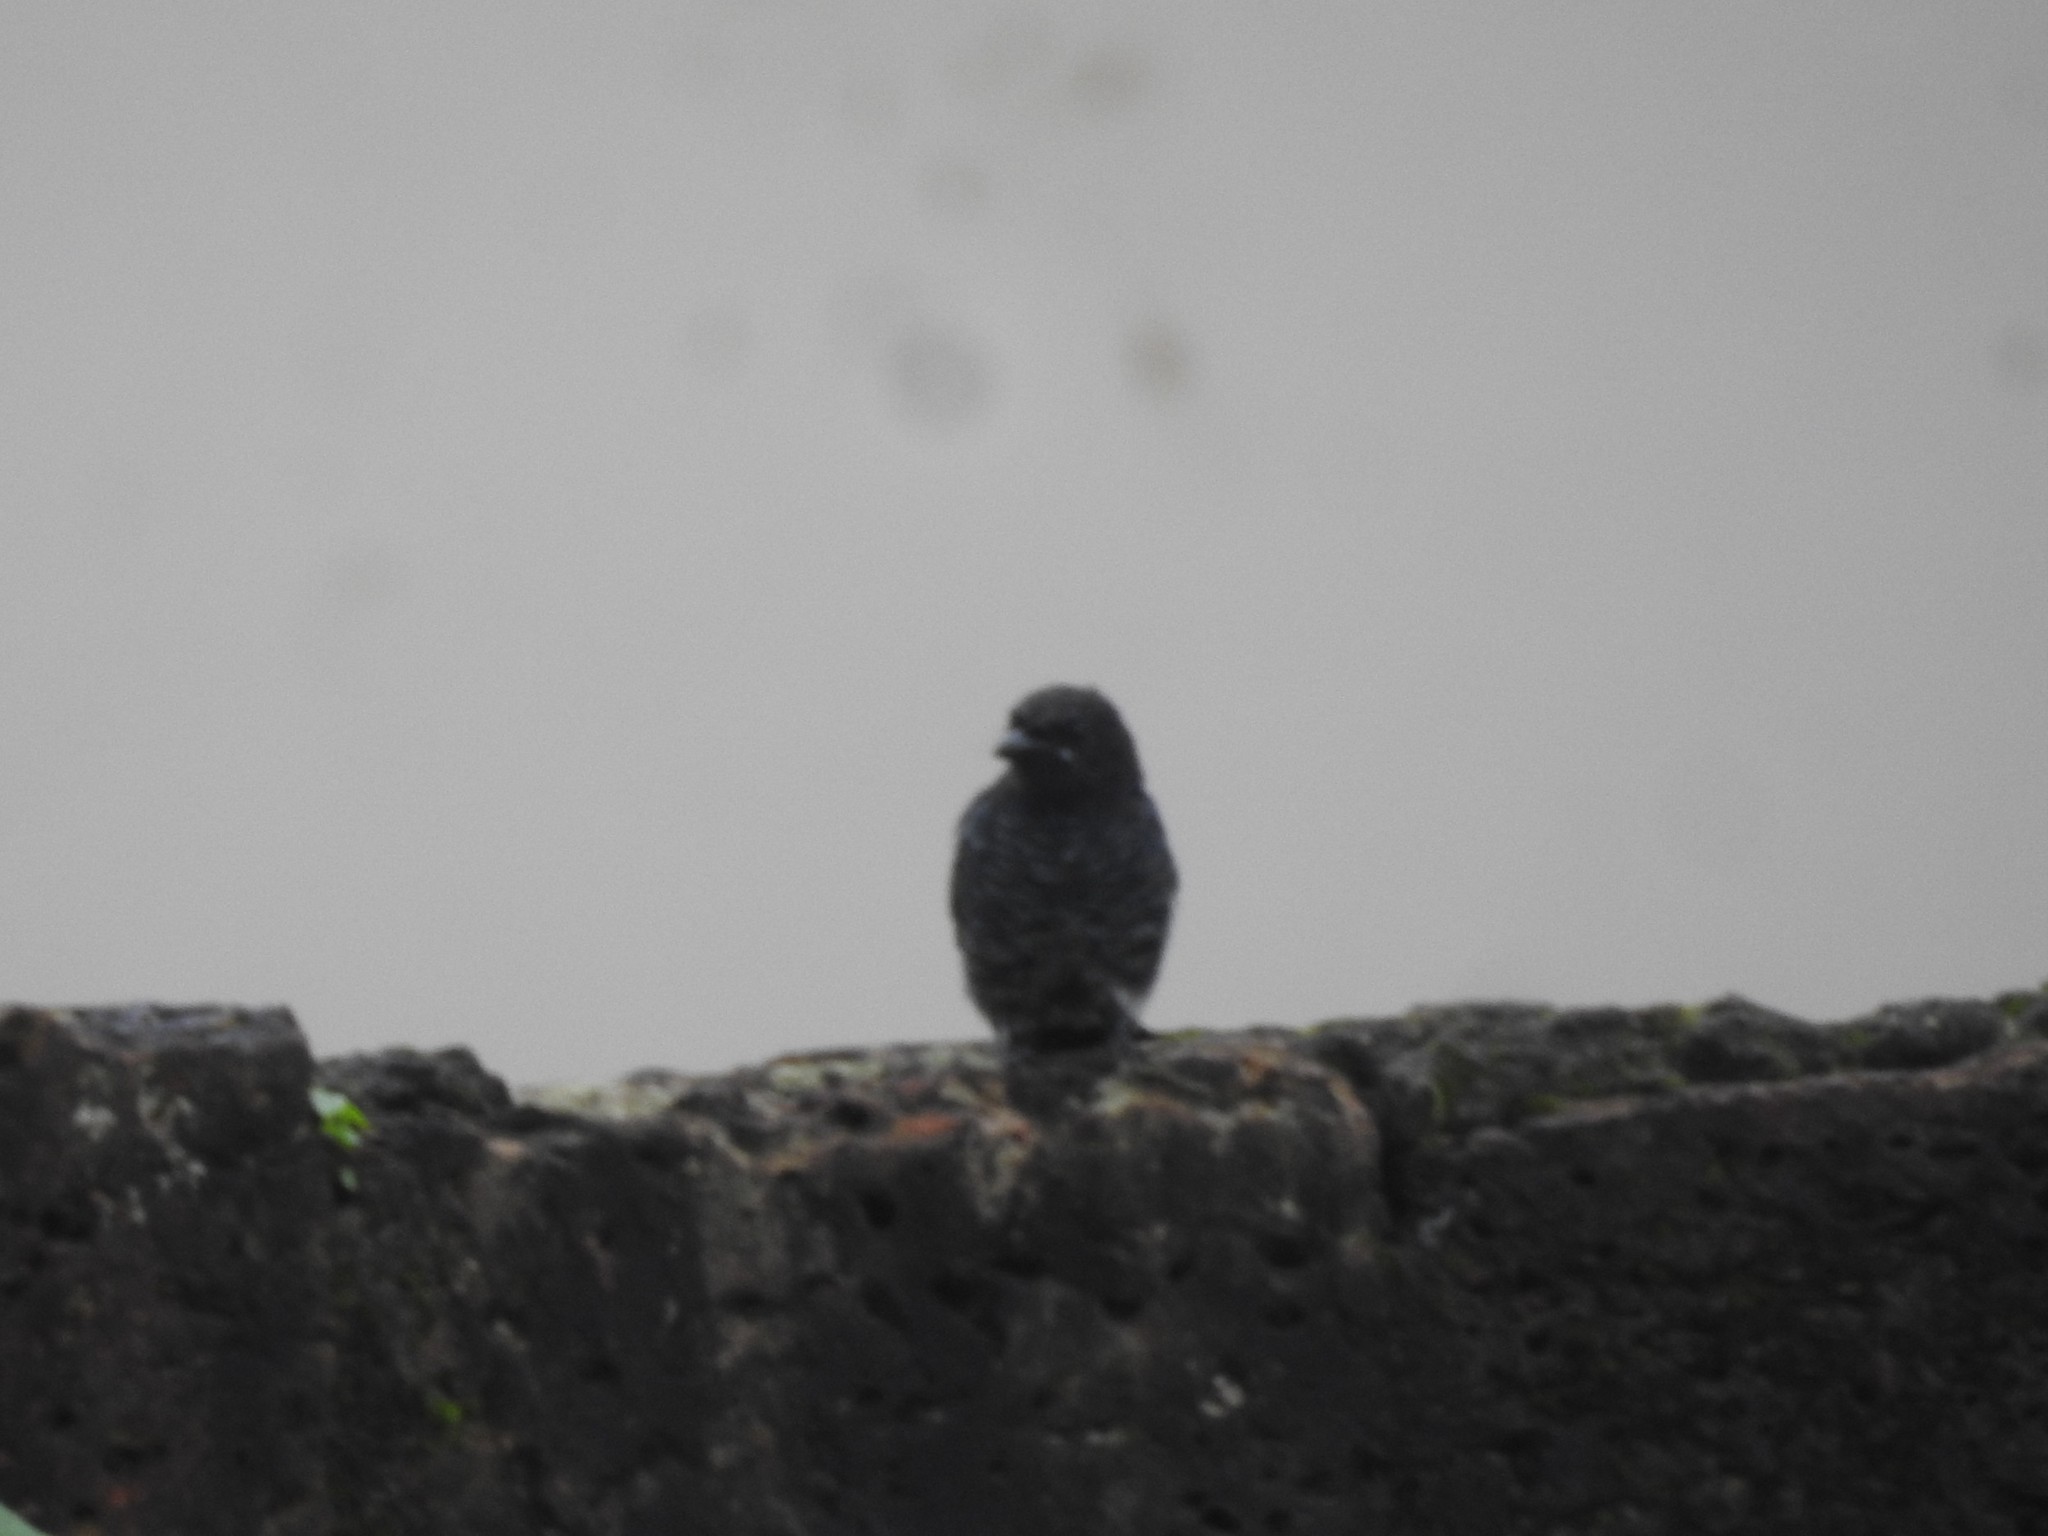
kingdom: Animalia
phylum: Chordata
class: Aves
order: Passeriformes
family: Dicruridae
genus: Dicrurus
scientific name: Dicrurus macrocercus
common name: Black drongo
